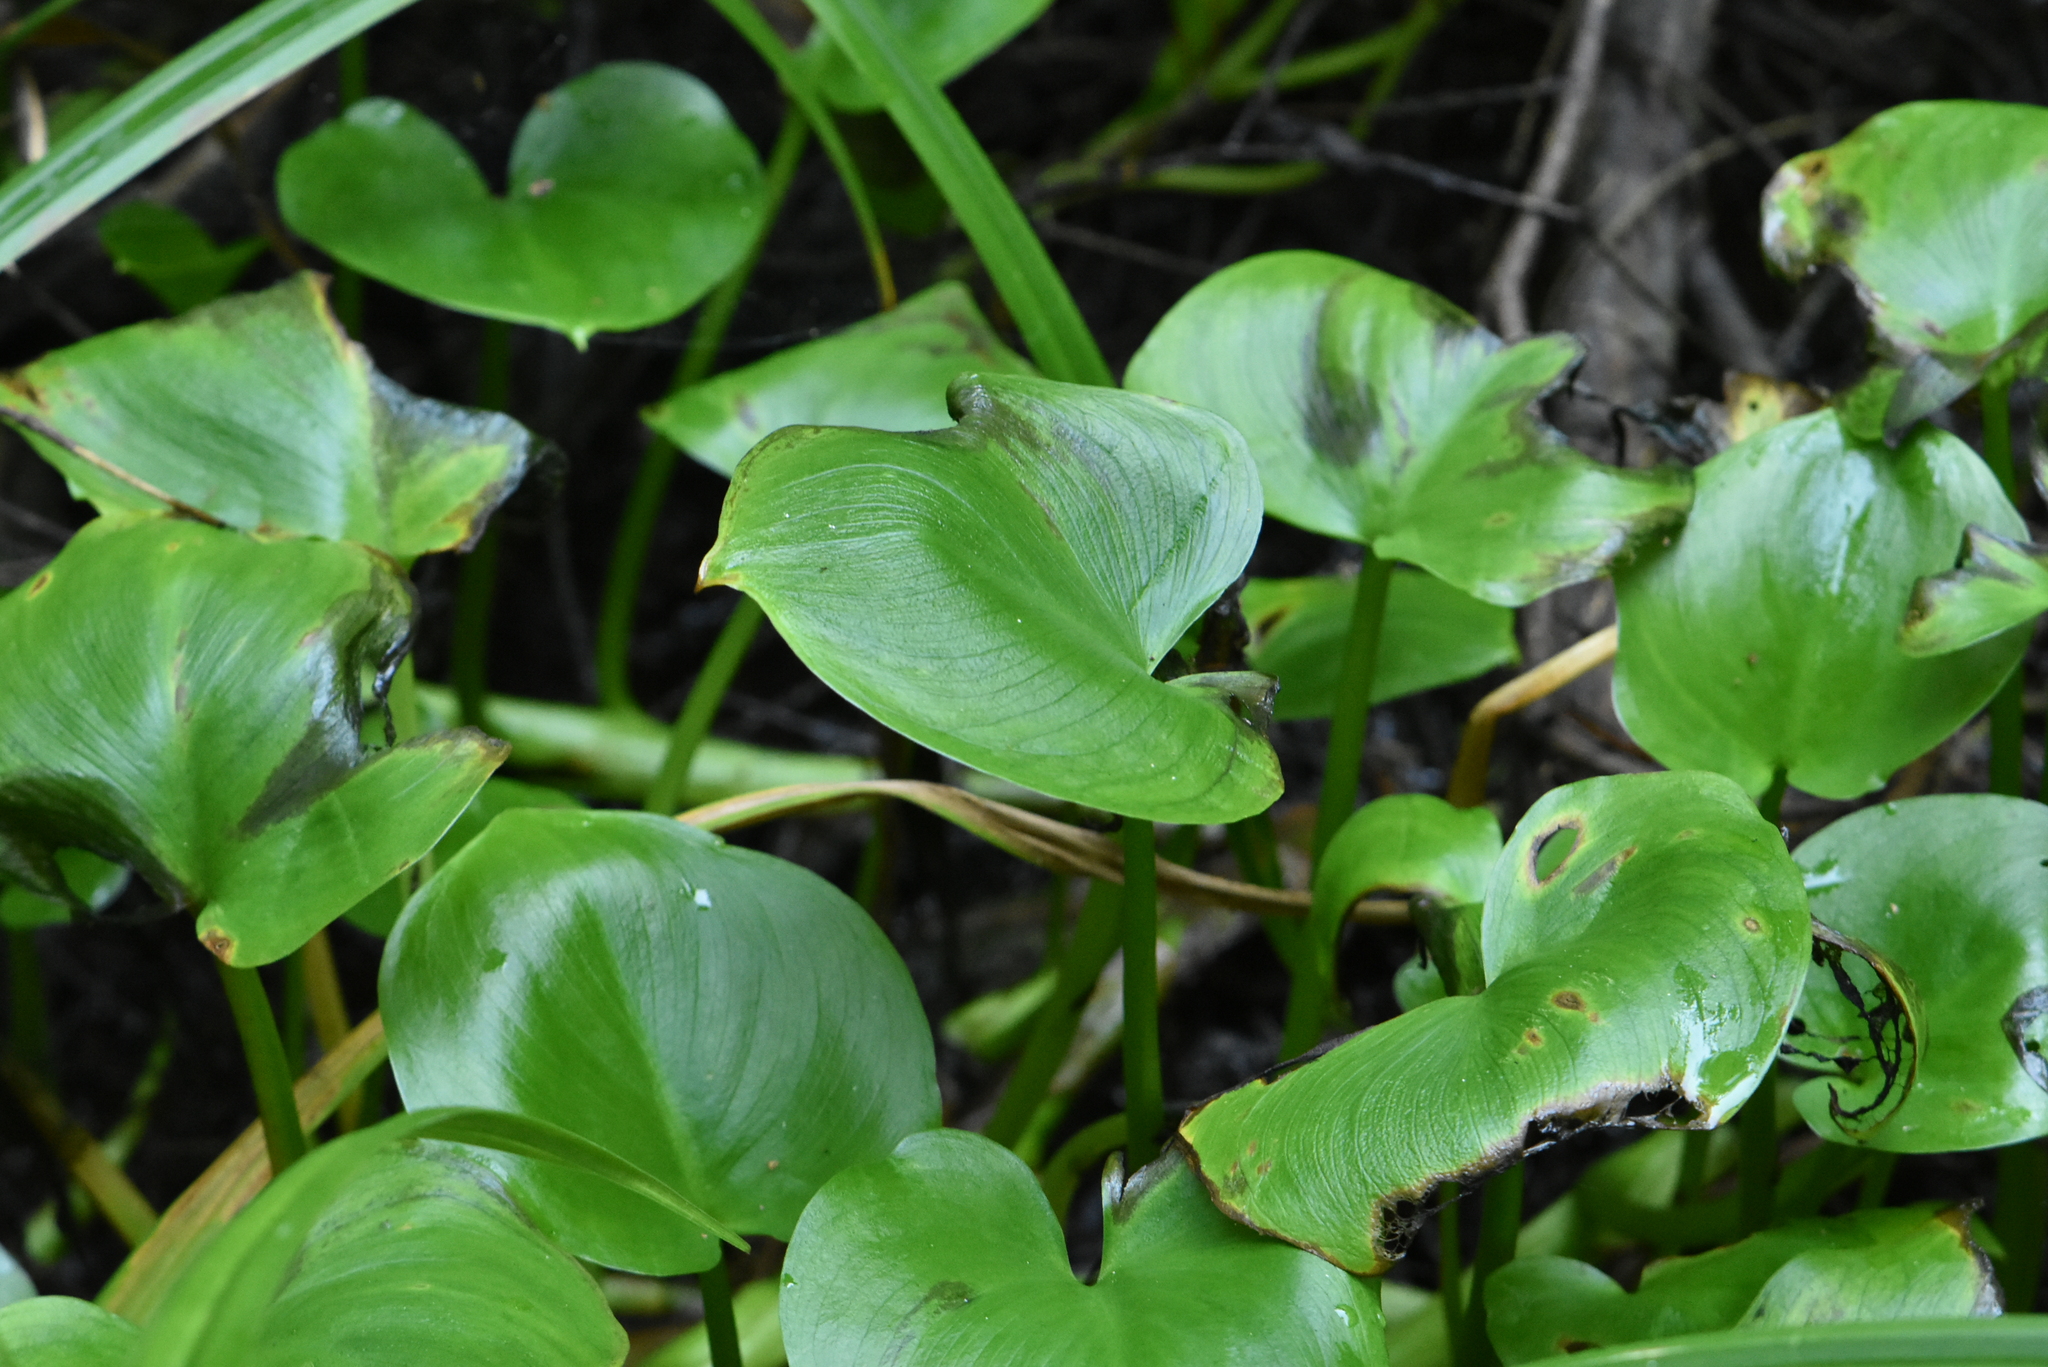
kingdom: Plantae
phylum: Tracheophyta
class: Liliopsida
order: Alismatales
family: Araceae
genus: Calla
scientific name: Calla palustris
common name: Bog arum
